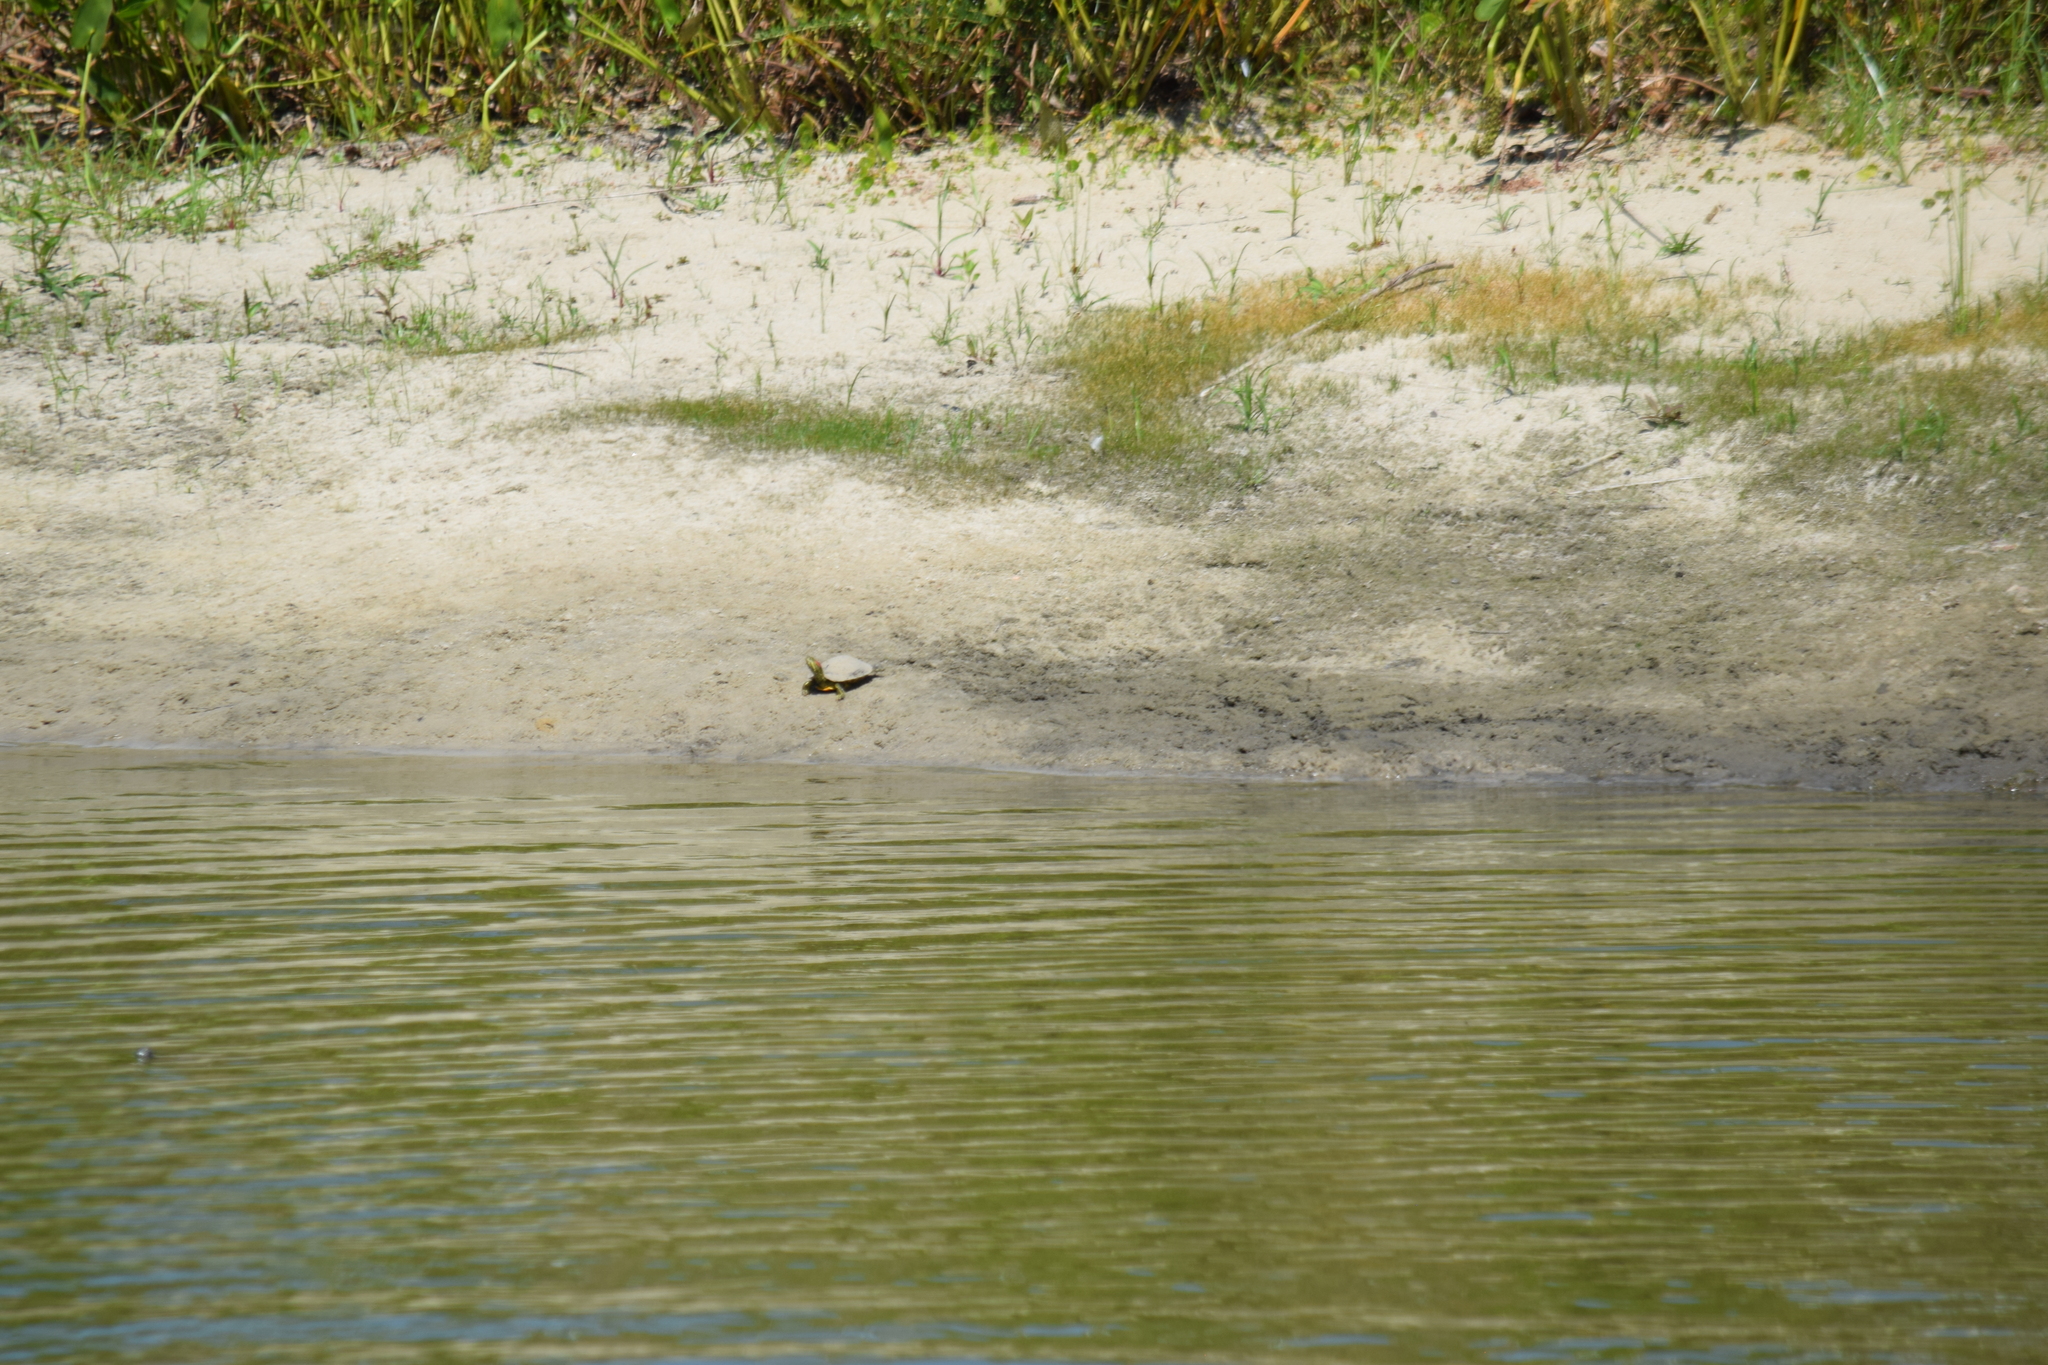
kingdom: Animalia
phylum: Chordata
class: Testudines
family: Emydidae
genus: Trachemys
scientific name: Trachemys scripta
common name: Slider
